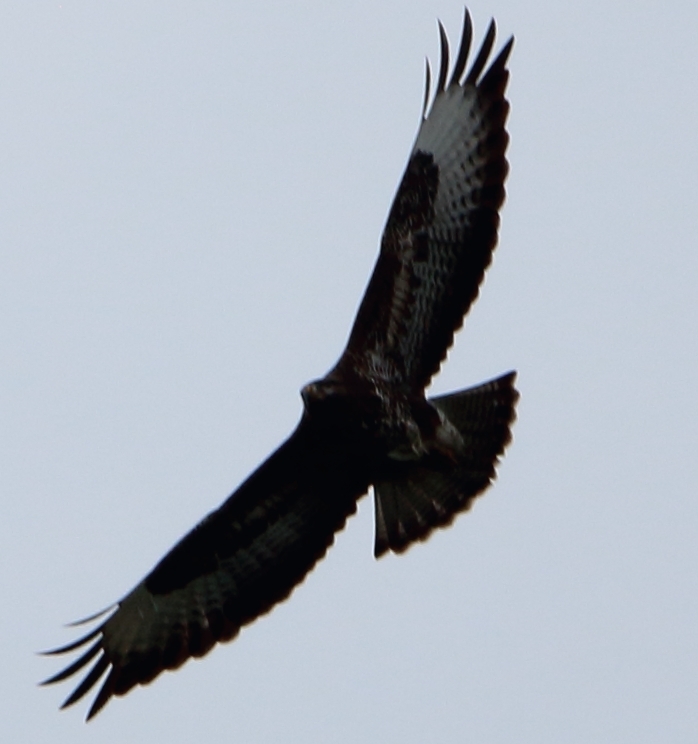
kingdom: Animalia
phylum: Chordata
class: Aves
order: Accipitriformes
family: Accipitridae
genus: Buteo
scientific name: Buteo buteo
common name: Common buzzard
